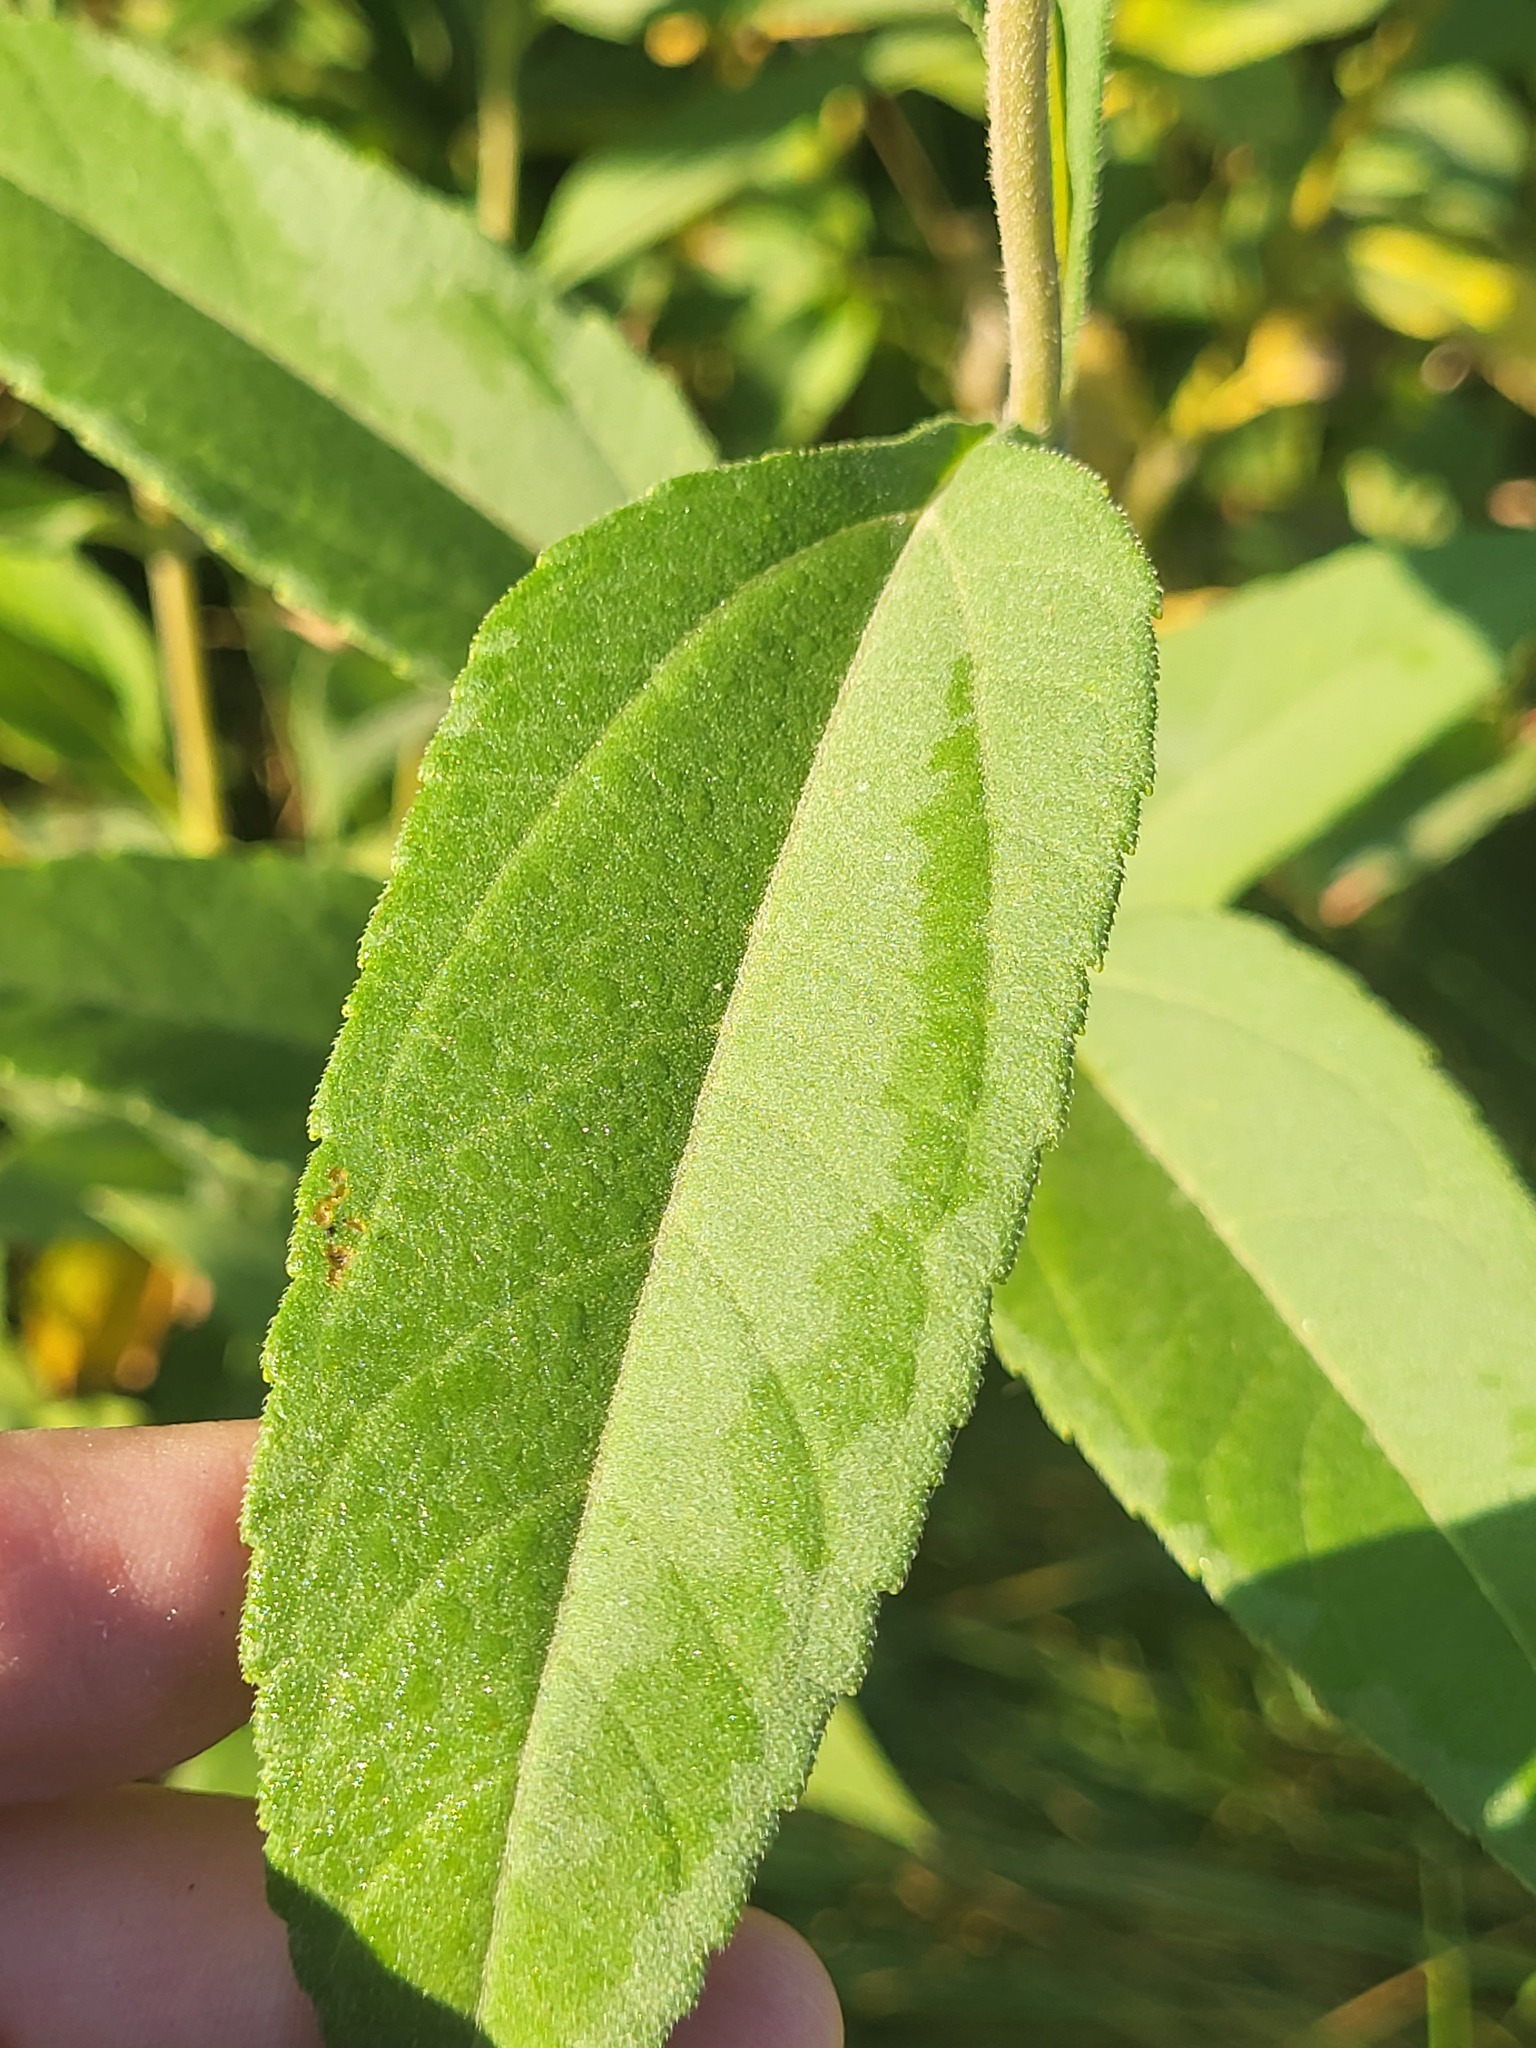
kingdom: Plantae
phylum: Tracheophyta
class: Magnoliopsida
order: Asterales
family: Asteraceae
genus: Helianthus
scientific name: Helianthus tuberosus
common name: Jerusalem artichoke
